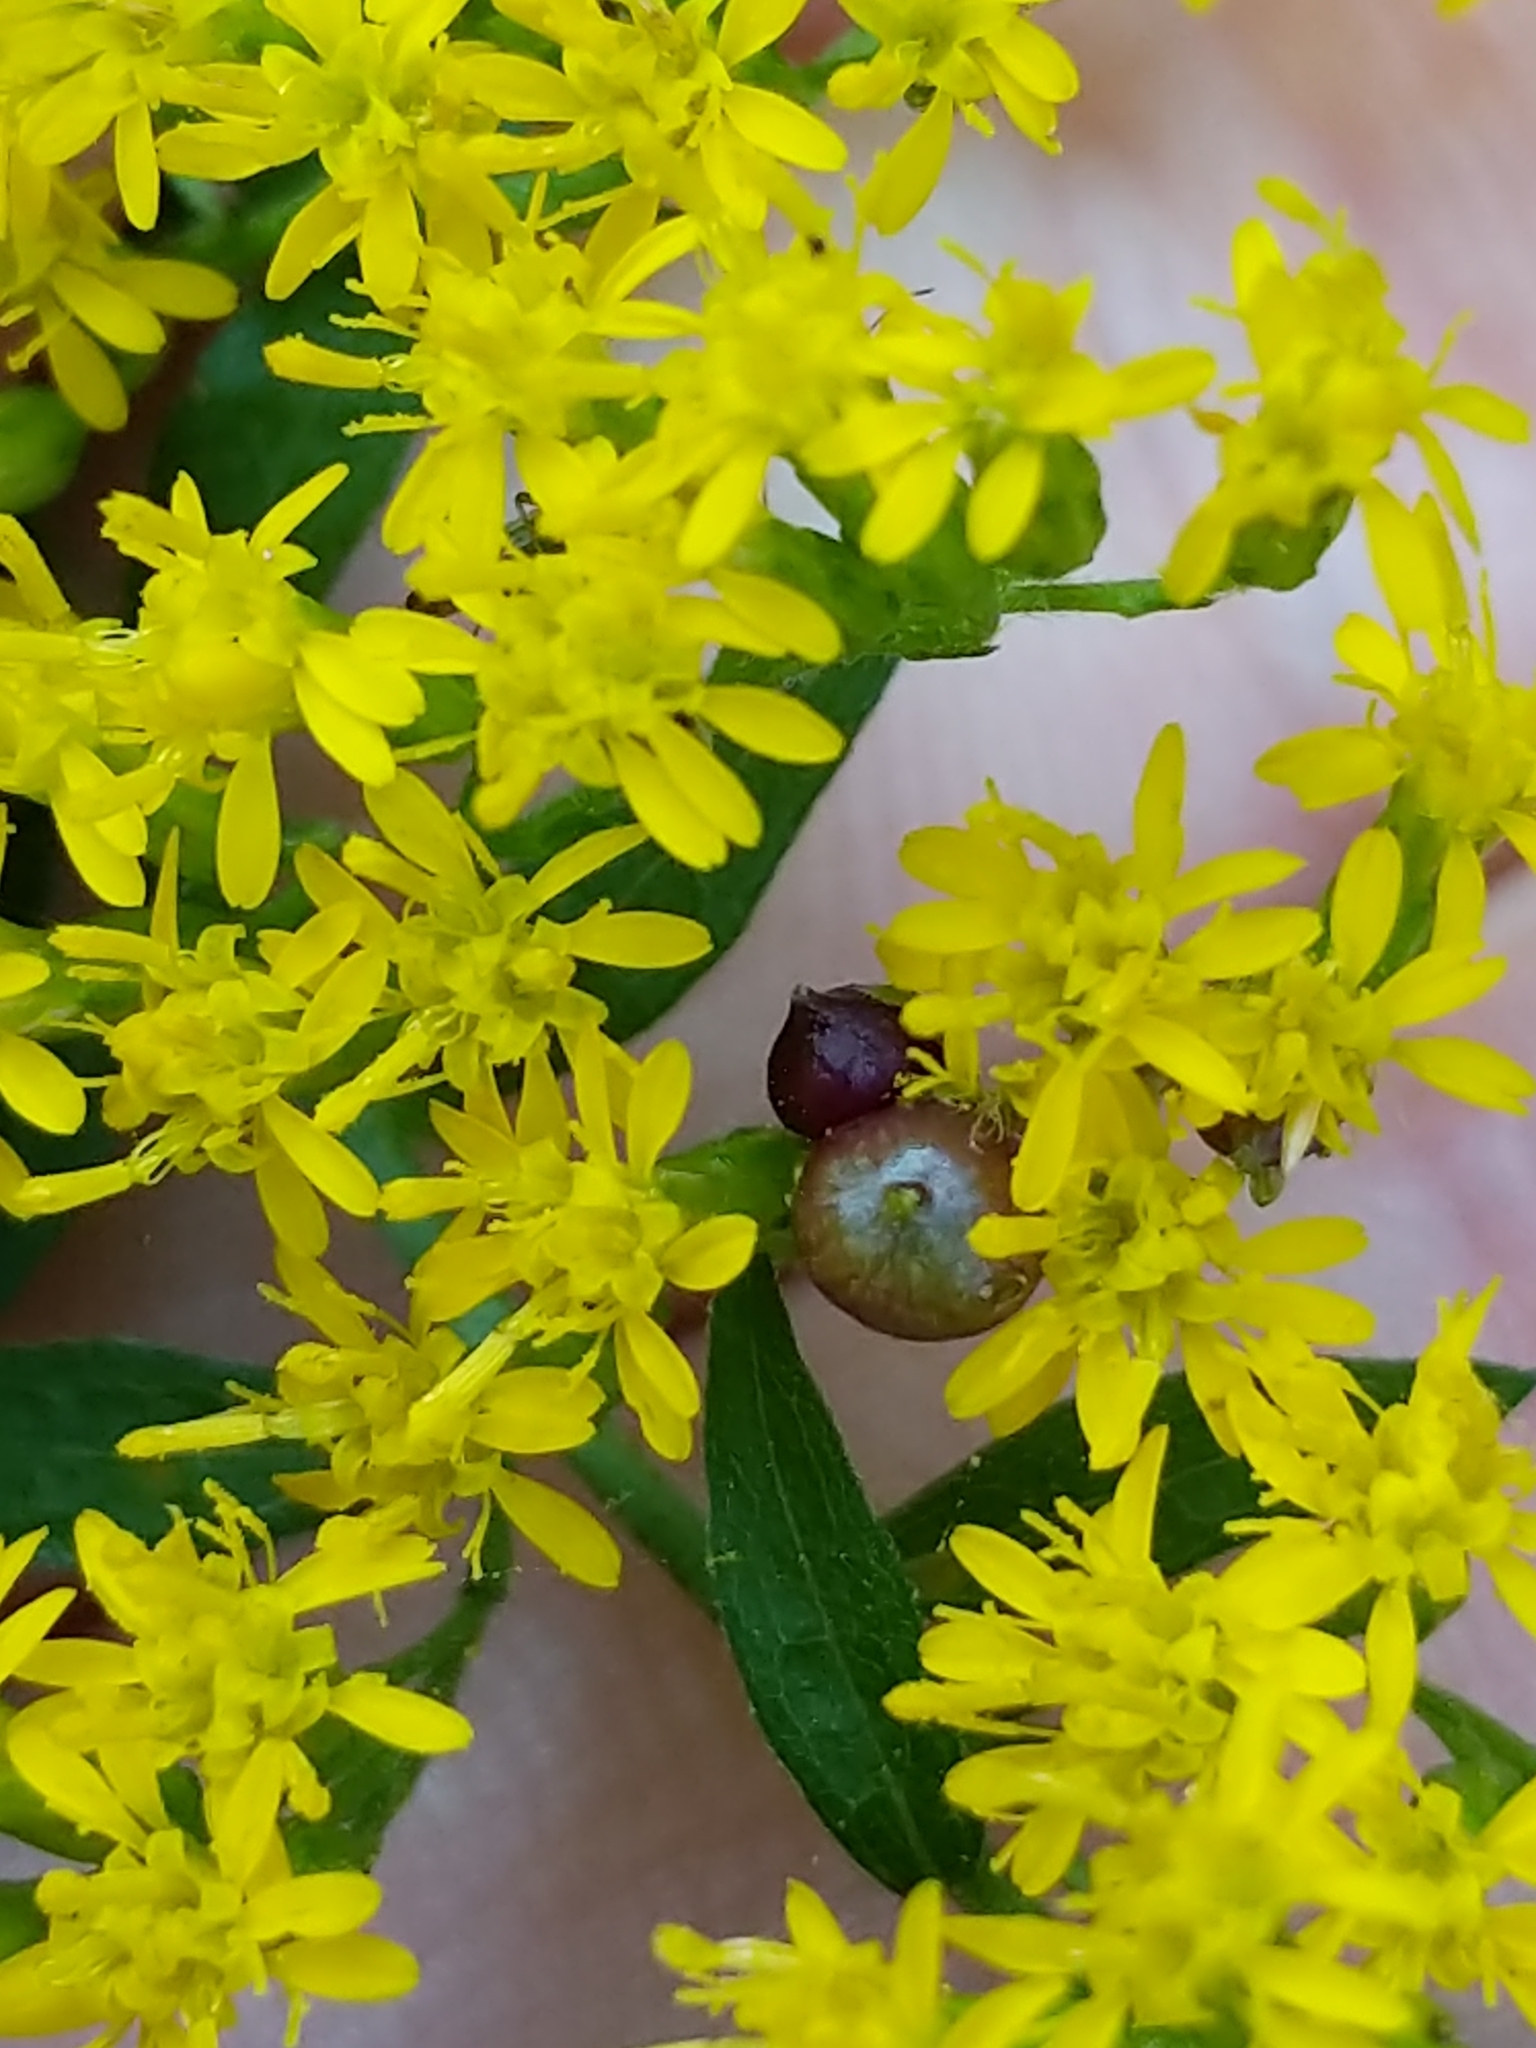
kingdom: Animalia
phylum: Arthropoda
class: Insecta
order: Diptera
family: Cecidomyiidae
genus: Schizomyia
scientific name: Schizomyia racemicola
